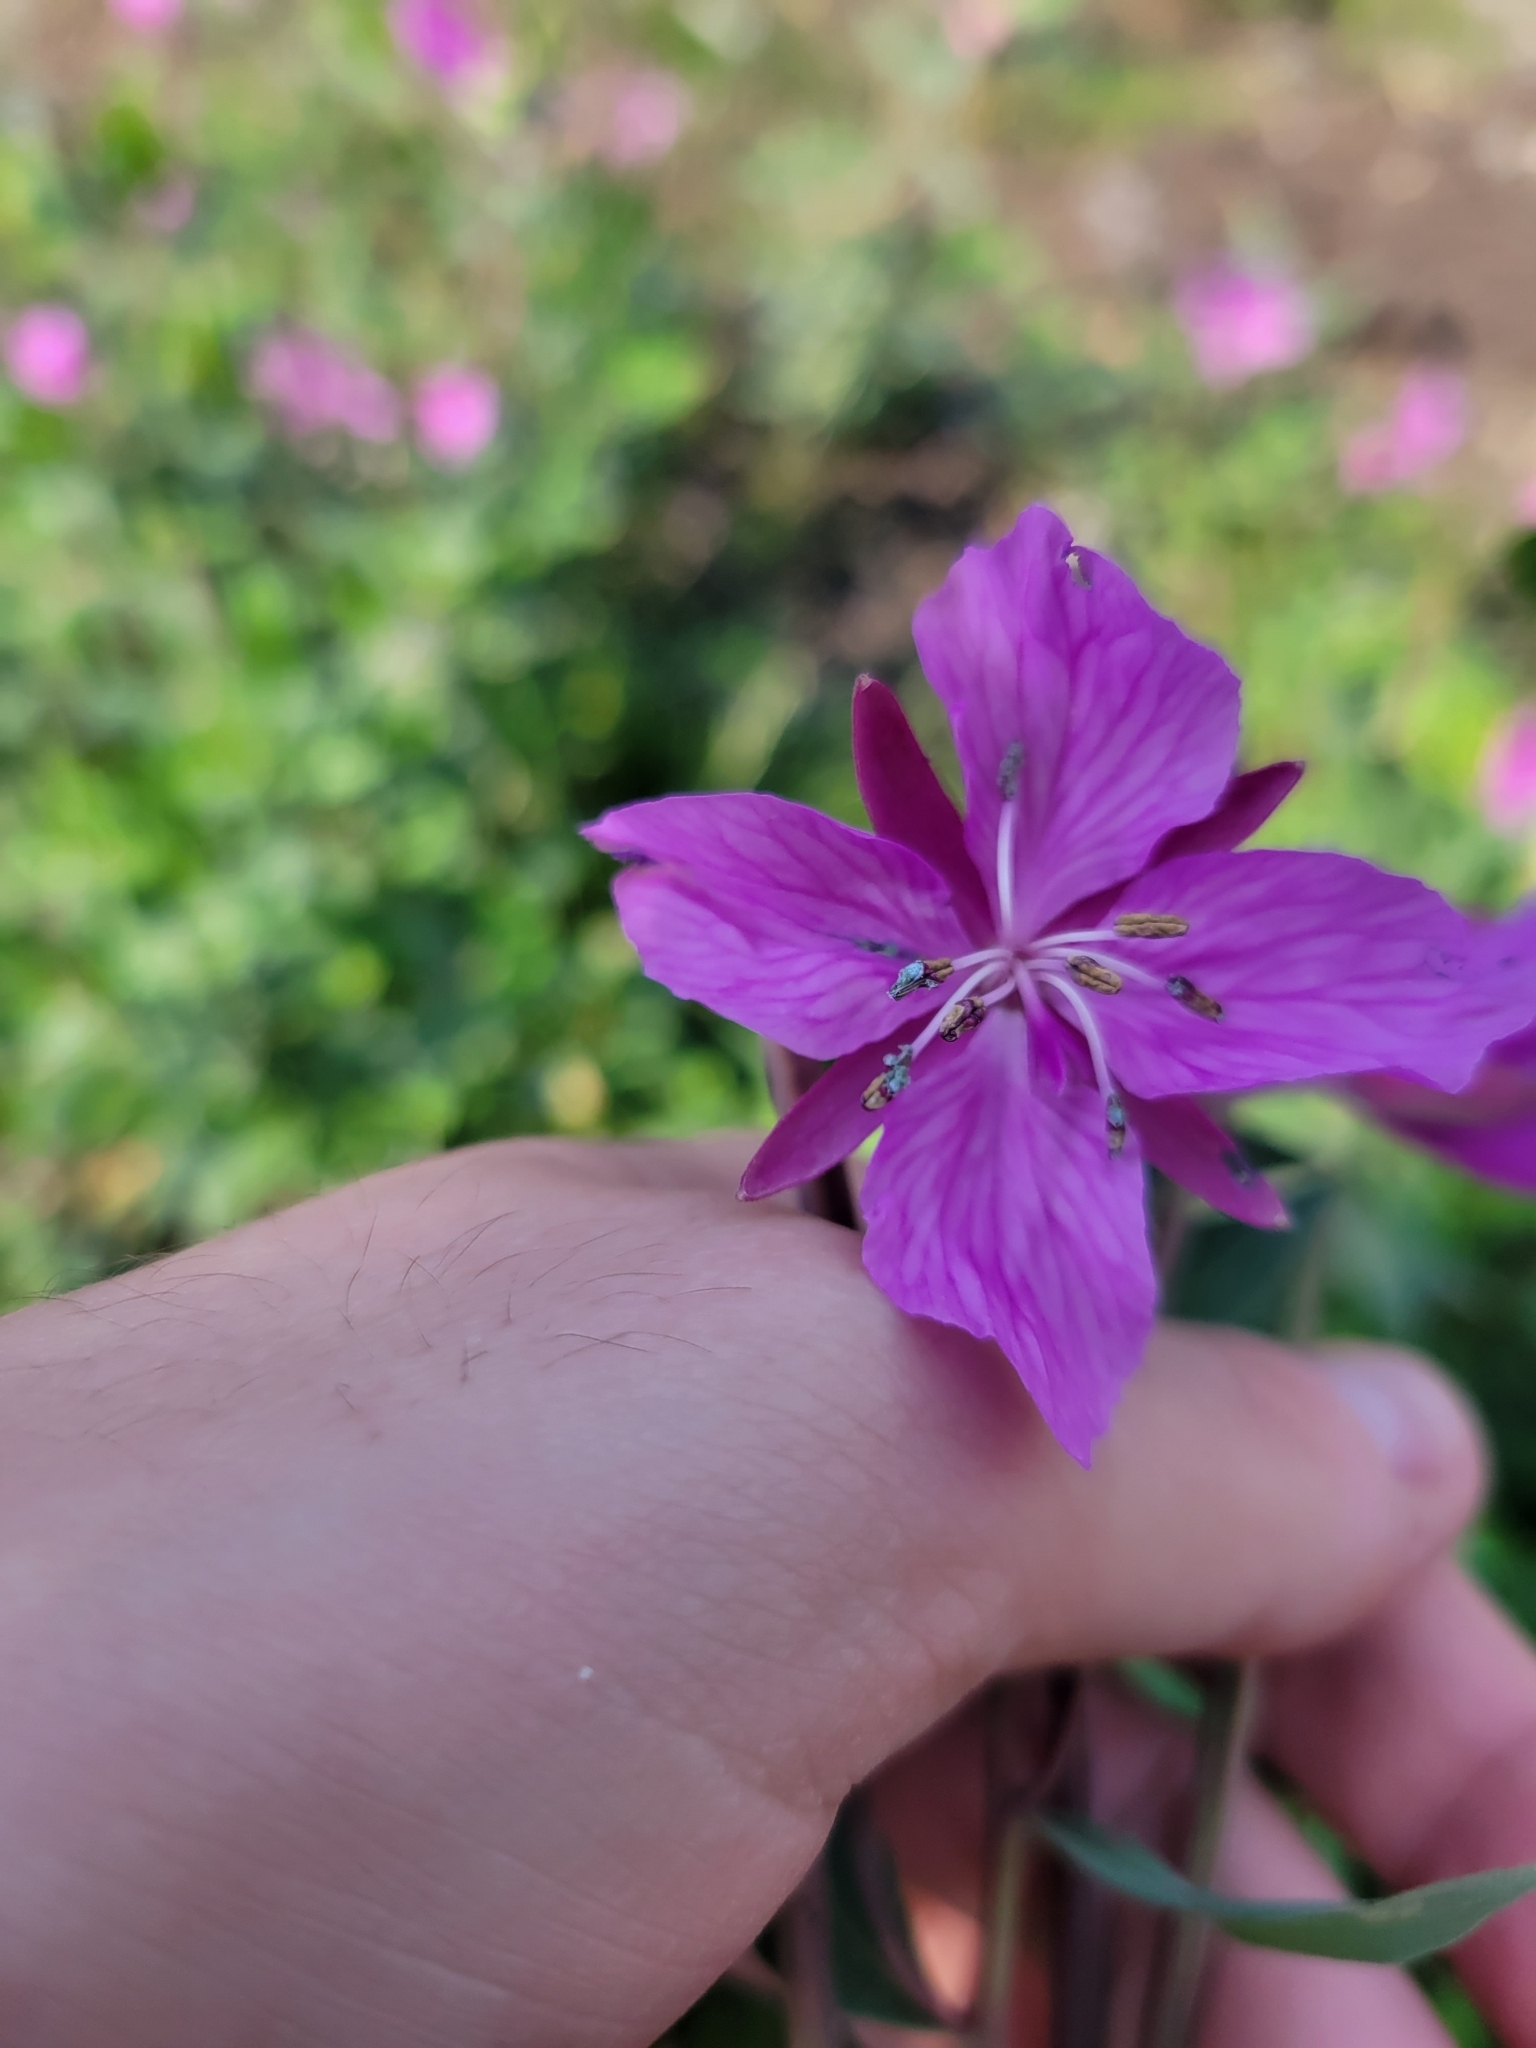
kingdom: Plantae
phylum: Tracheophyta
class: Magnoliopsida
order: Myrtales
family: Onagraceae
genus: Chamaenerion
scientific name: Chamaenerion latifolium
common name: Dwarf fireweed
